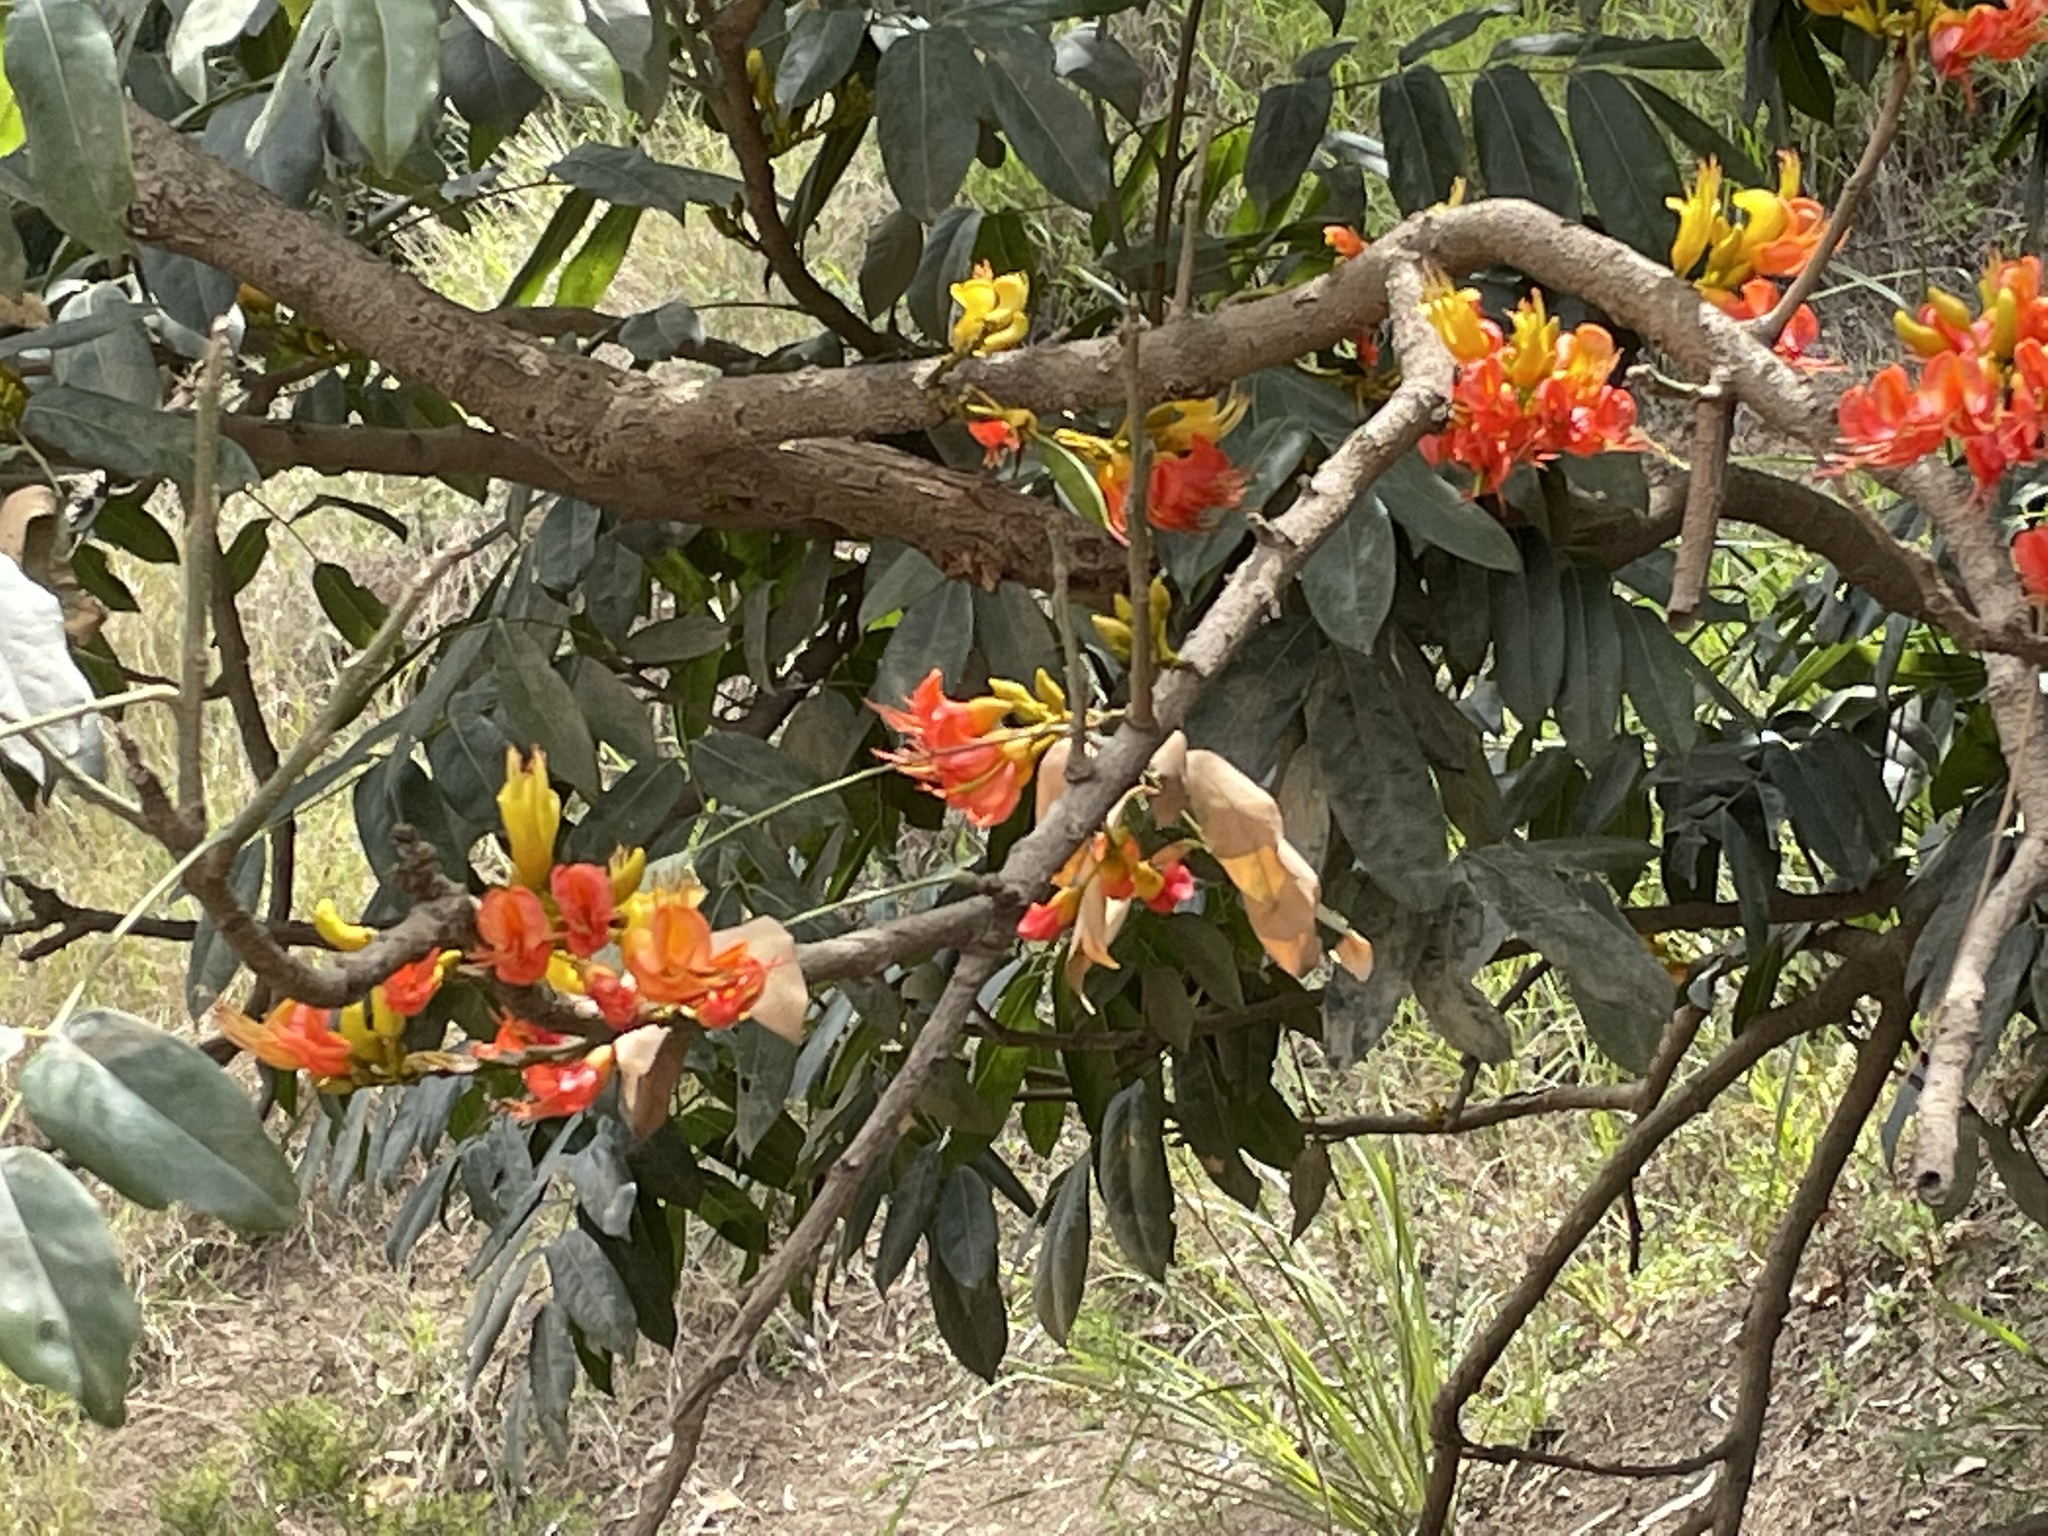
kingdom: Plantae
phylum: Tracheophyta
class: Magnoliopsida
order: Fabales
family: Fabaceae
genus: Castanospermum
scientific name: Castanospermum australe
